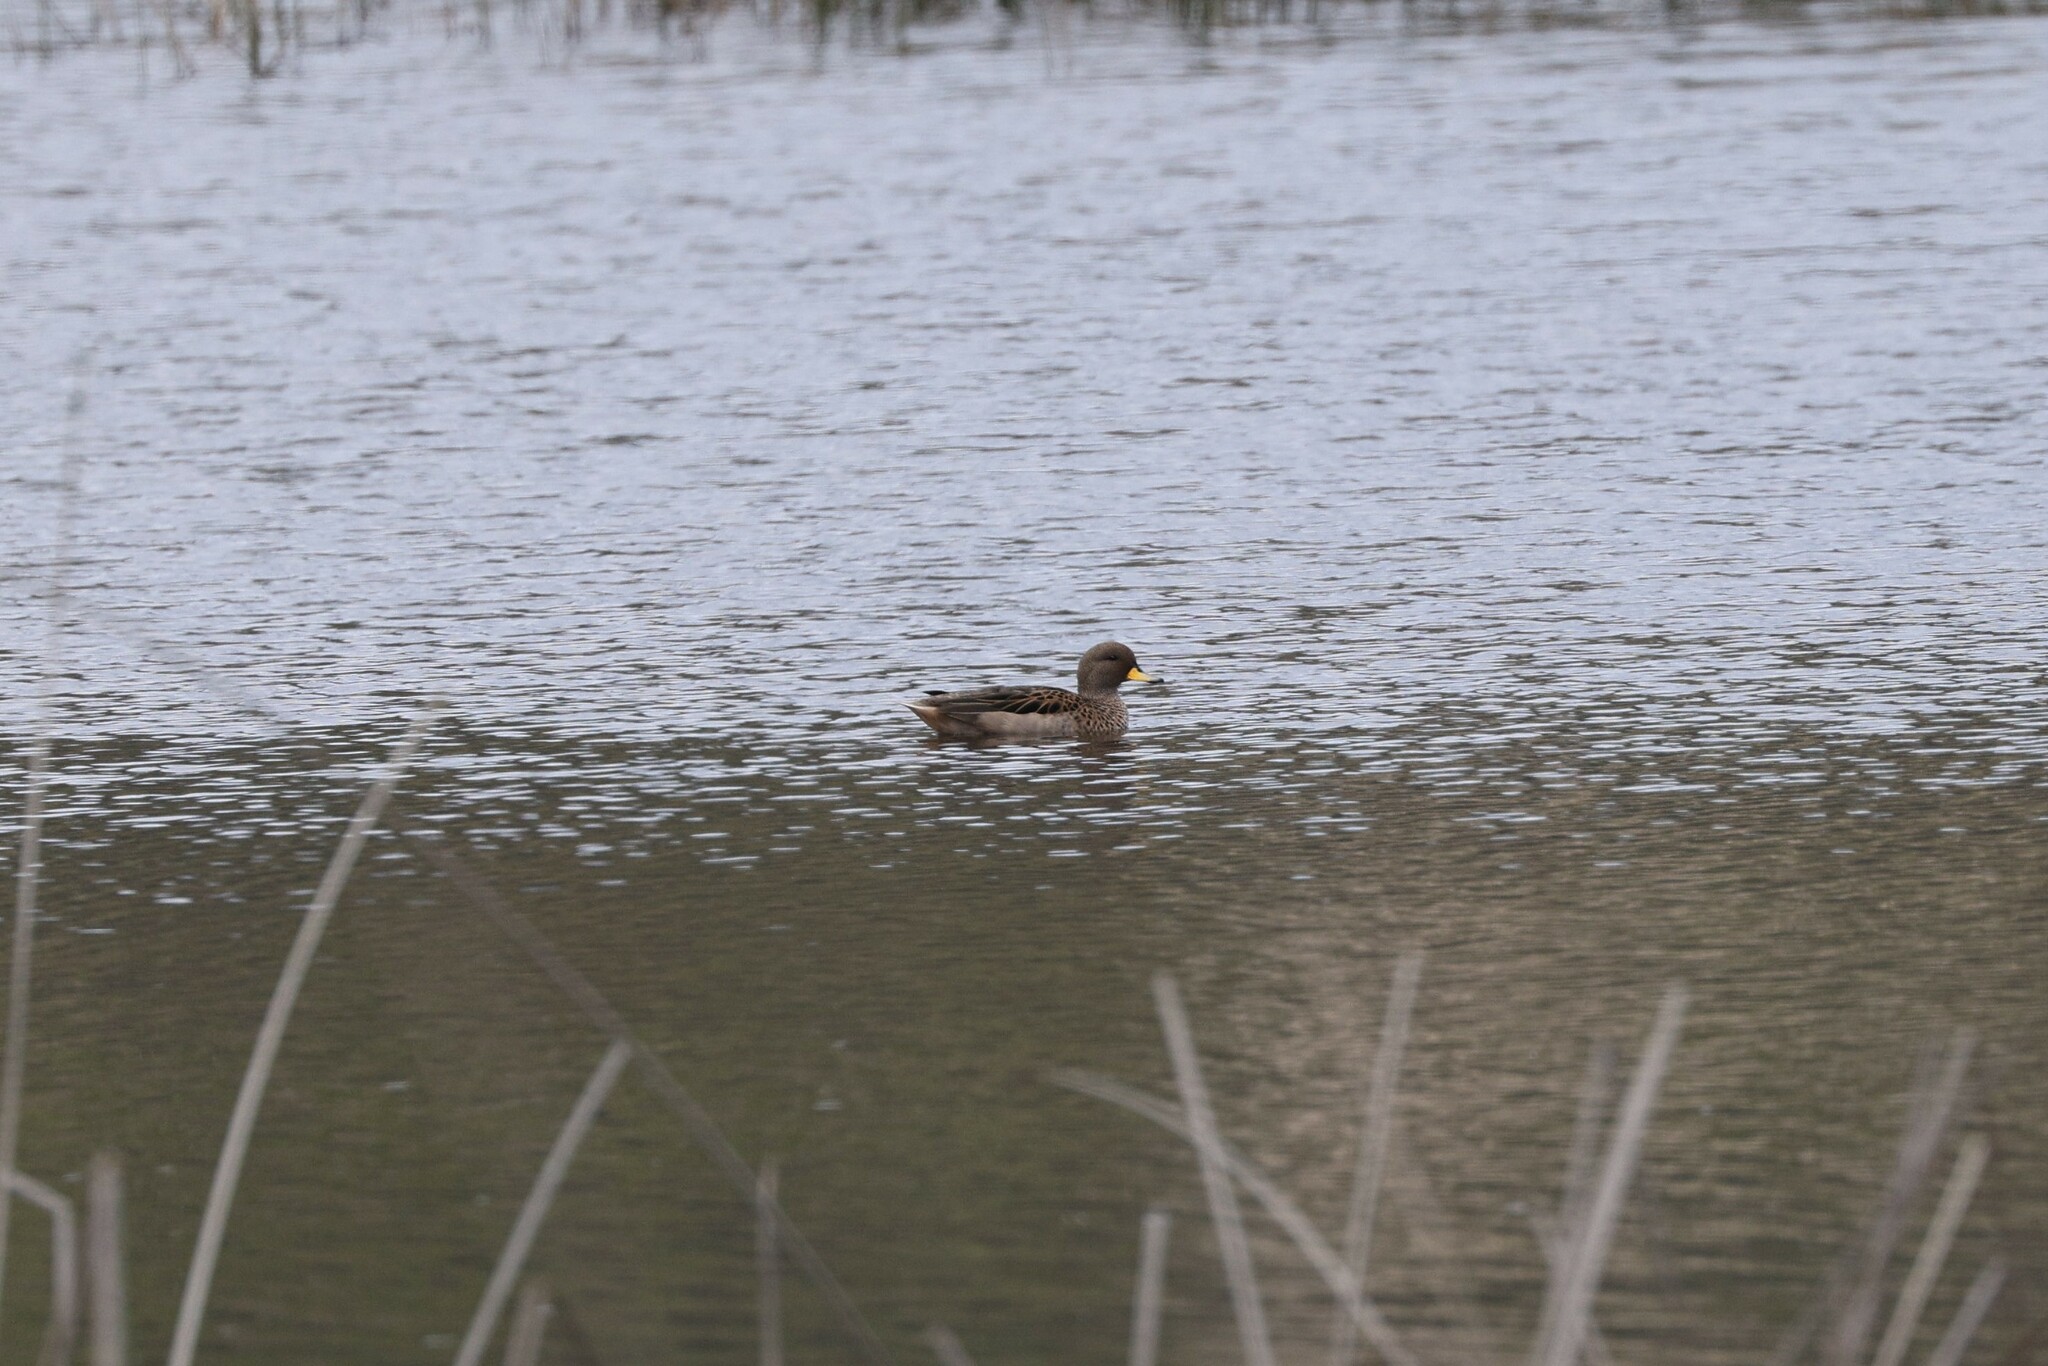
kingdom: Animalia
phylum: Chordata
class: Aves
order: Anseriformes
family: Anatidae
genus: Anas
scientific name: Anas flavirostris
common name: Yellow-billed teal
